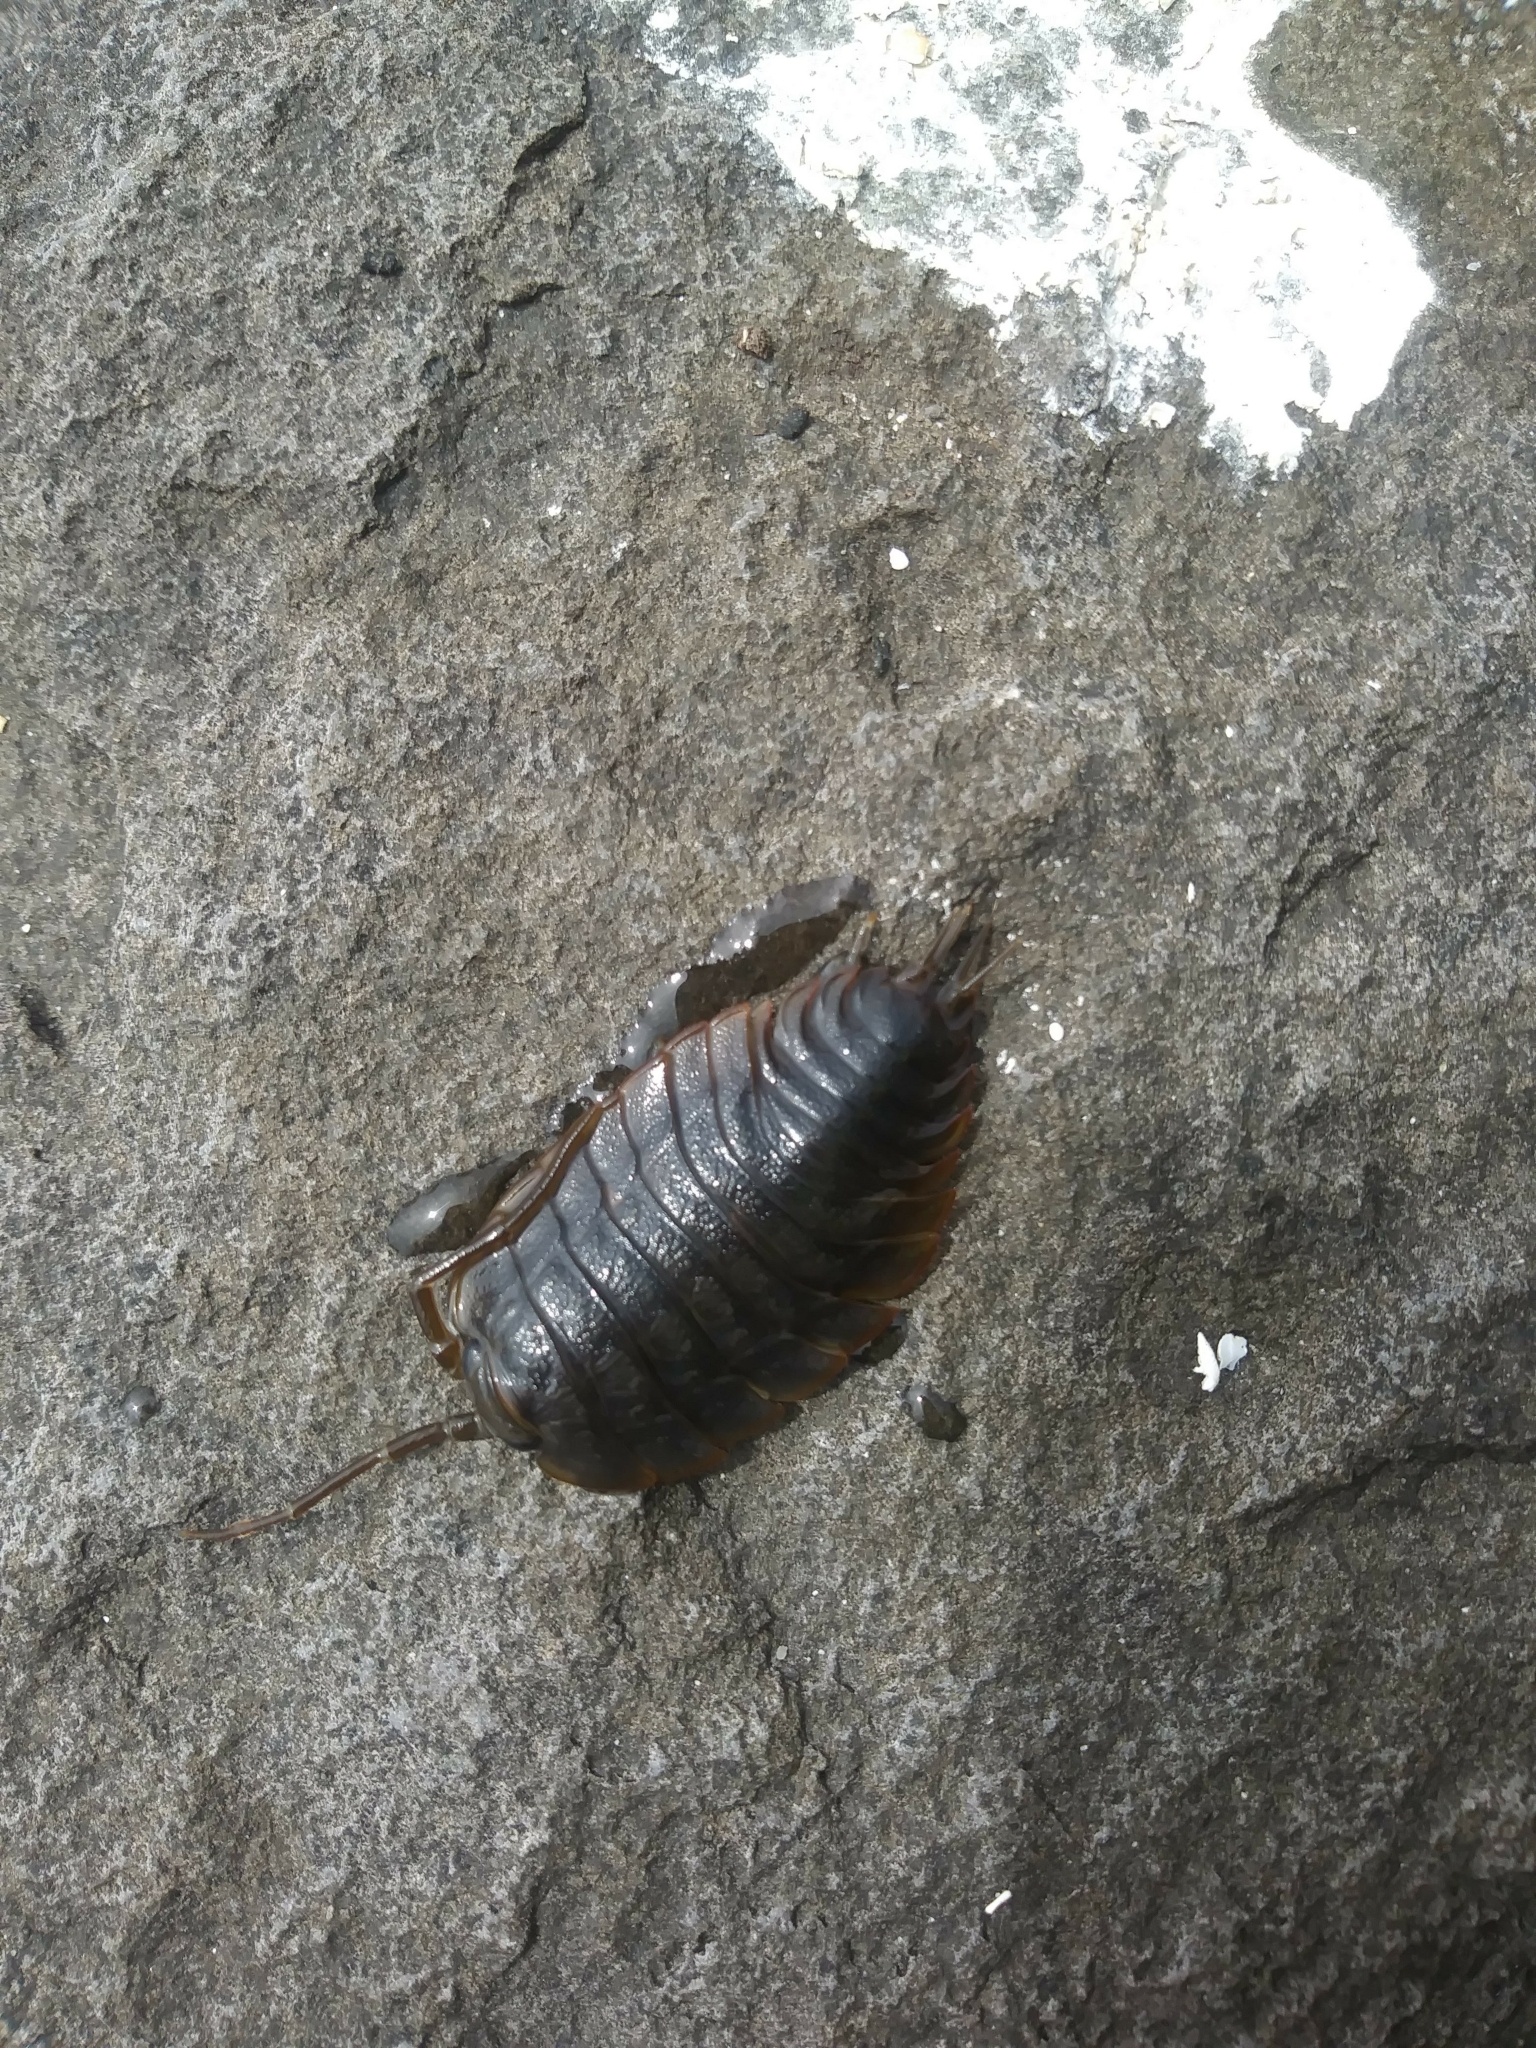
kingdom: Animalia
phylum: Arthropoda
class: Malacostraca
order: Isopoda
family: Ligiidae
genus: Ligia
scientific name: Ligia pallasii
